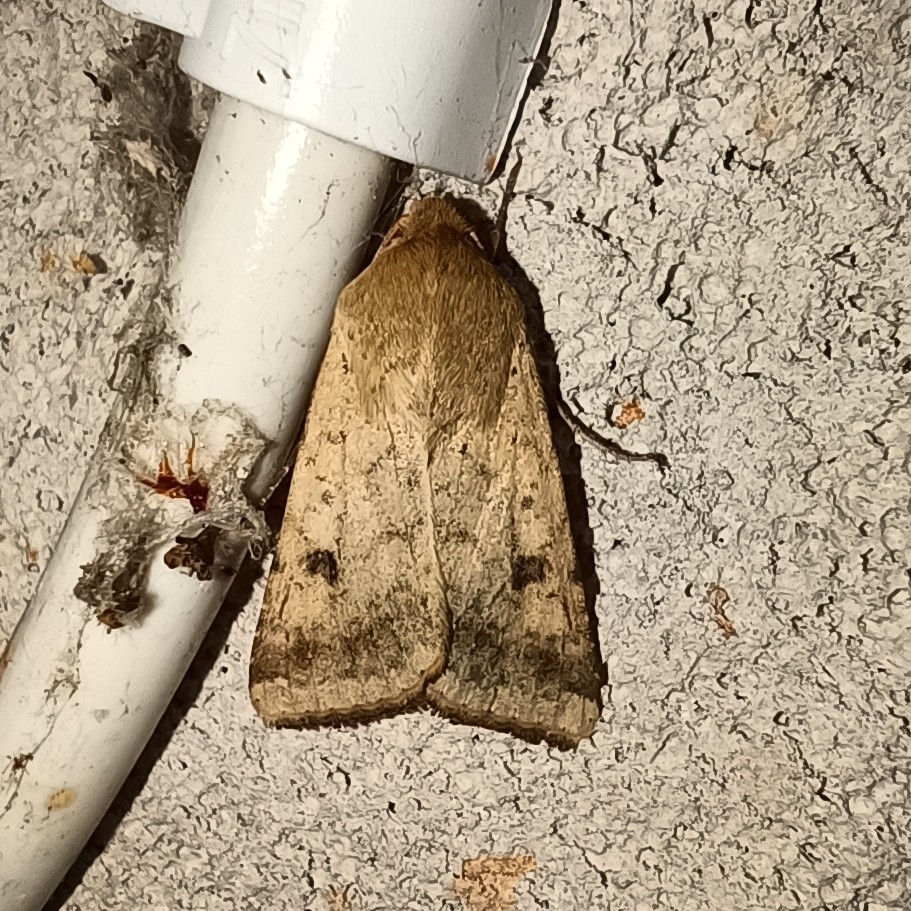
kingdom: Animalia
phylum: Arthropoda
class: Insecta
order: Lepidoptera
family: Noctuidae
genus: Helicoverpa
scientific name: Helicoverpa armigera
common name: Cotton bollworm
